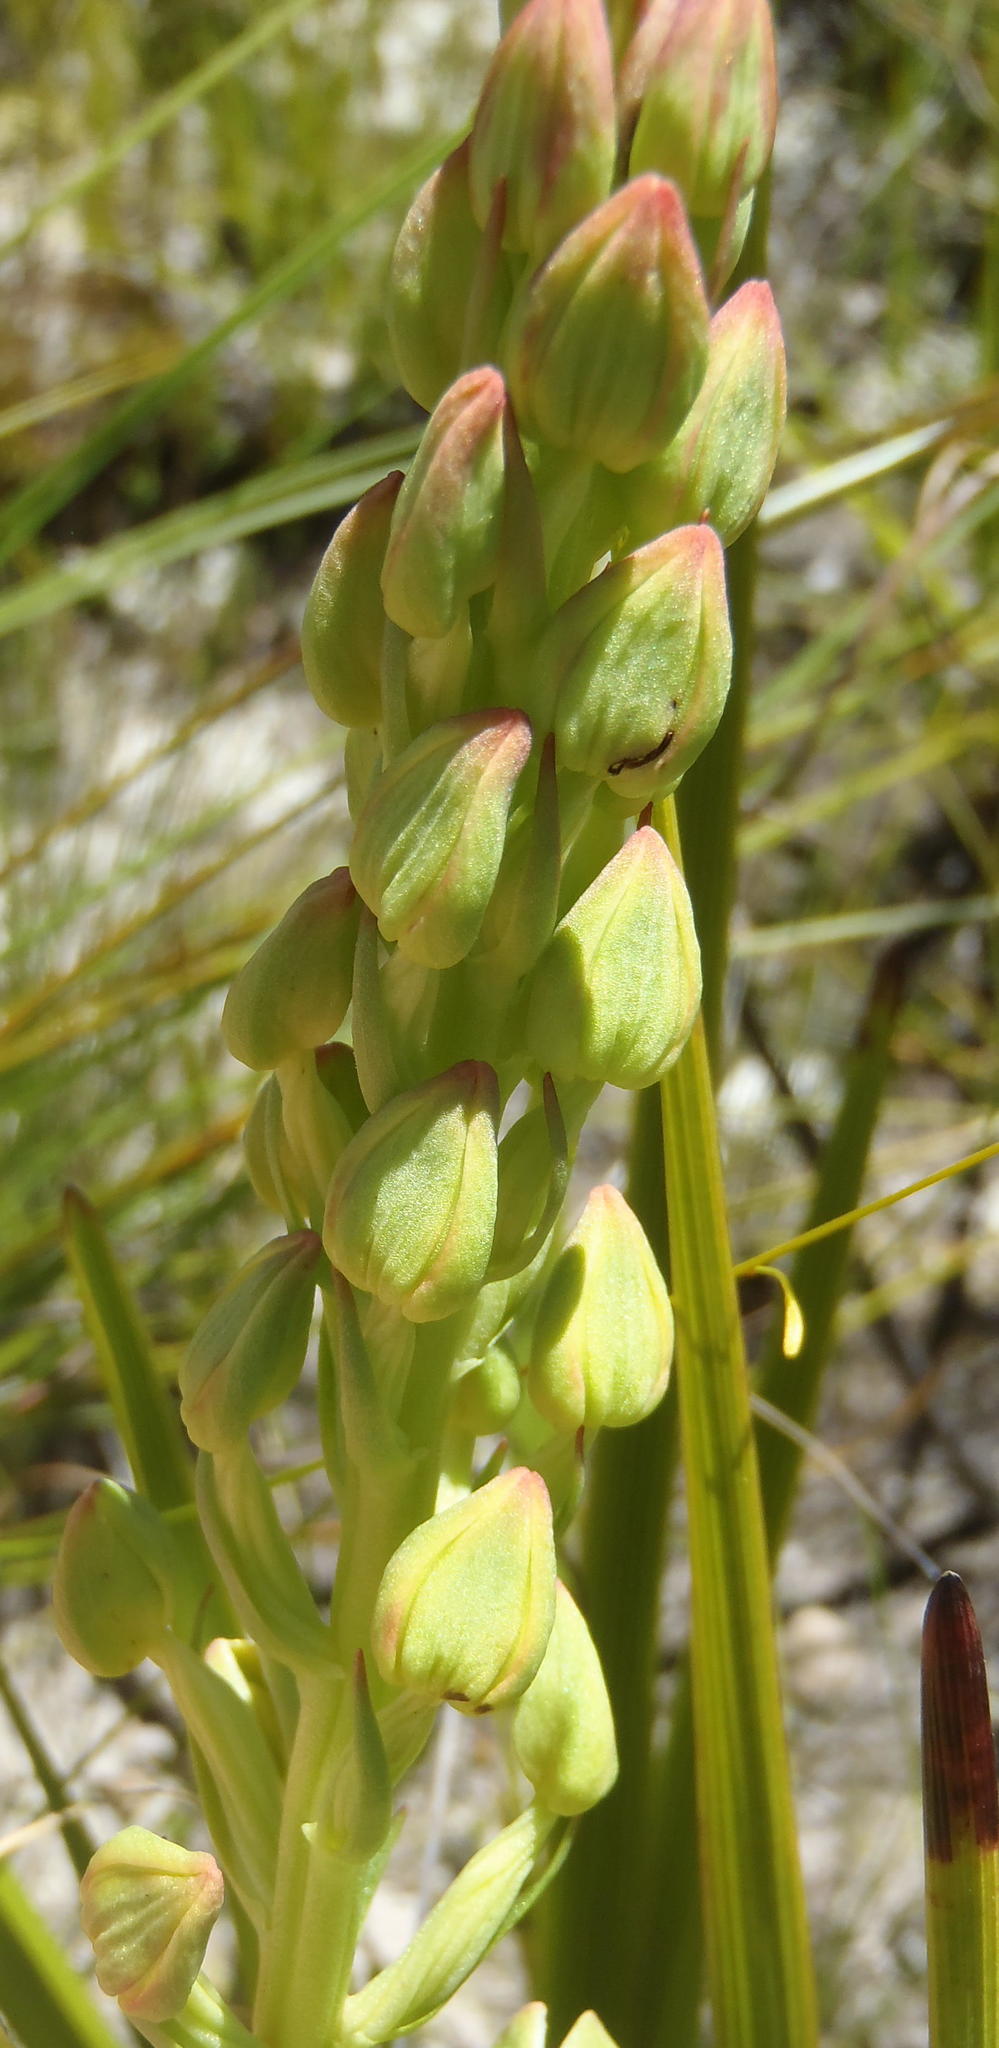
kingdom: Plantae
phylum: Tracheophyta
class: Liliopsida
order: Asparagales
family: Orchidaceae
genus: Ceratandra
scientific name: Ceratandra atrata
